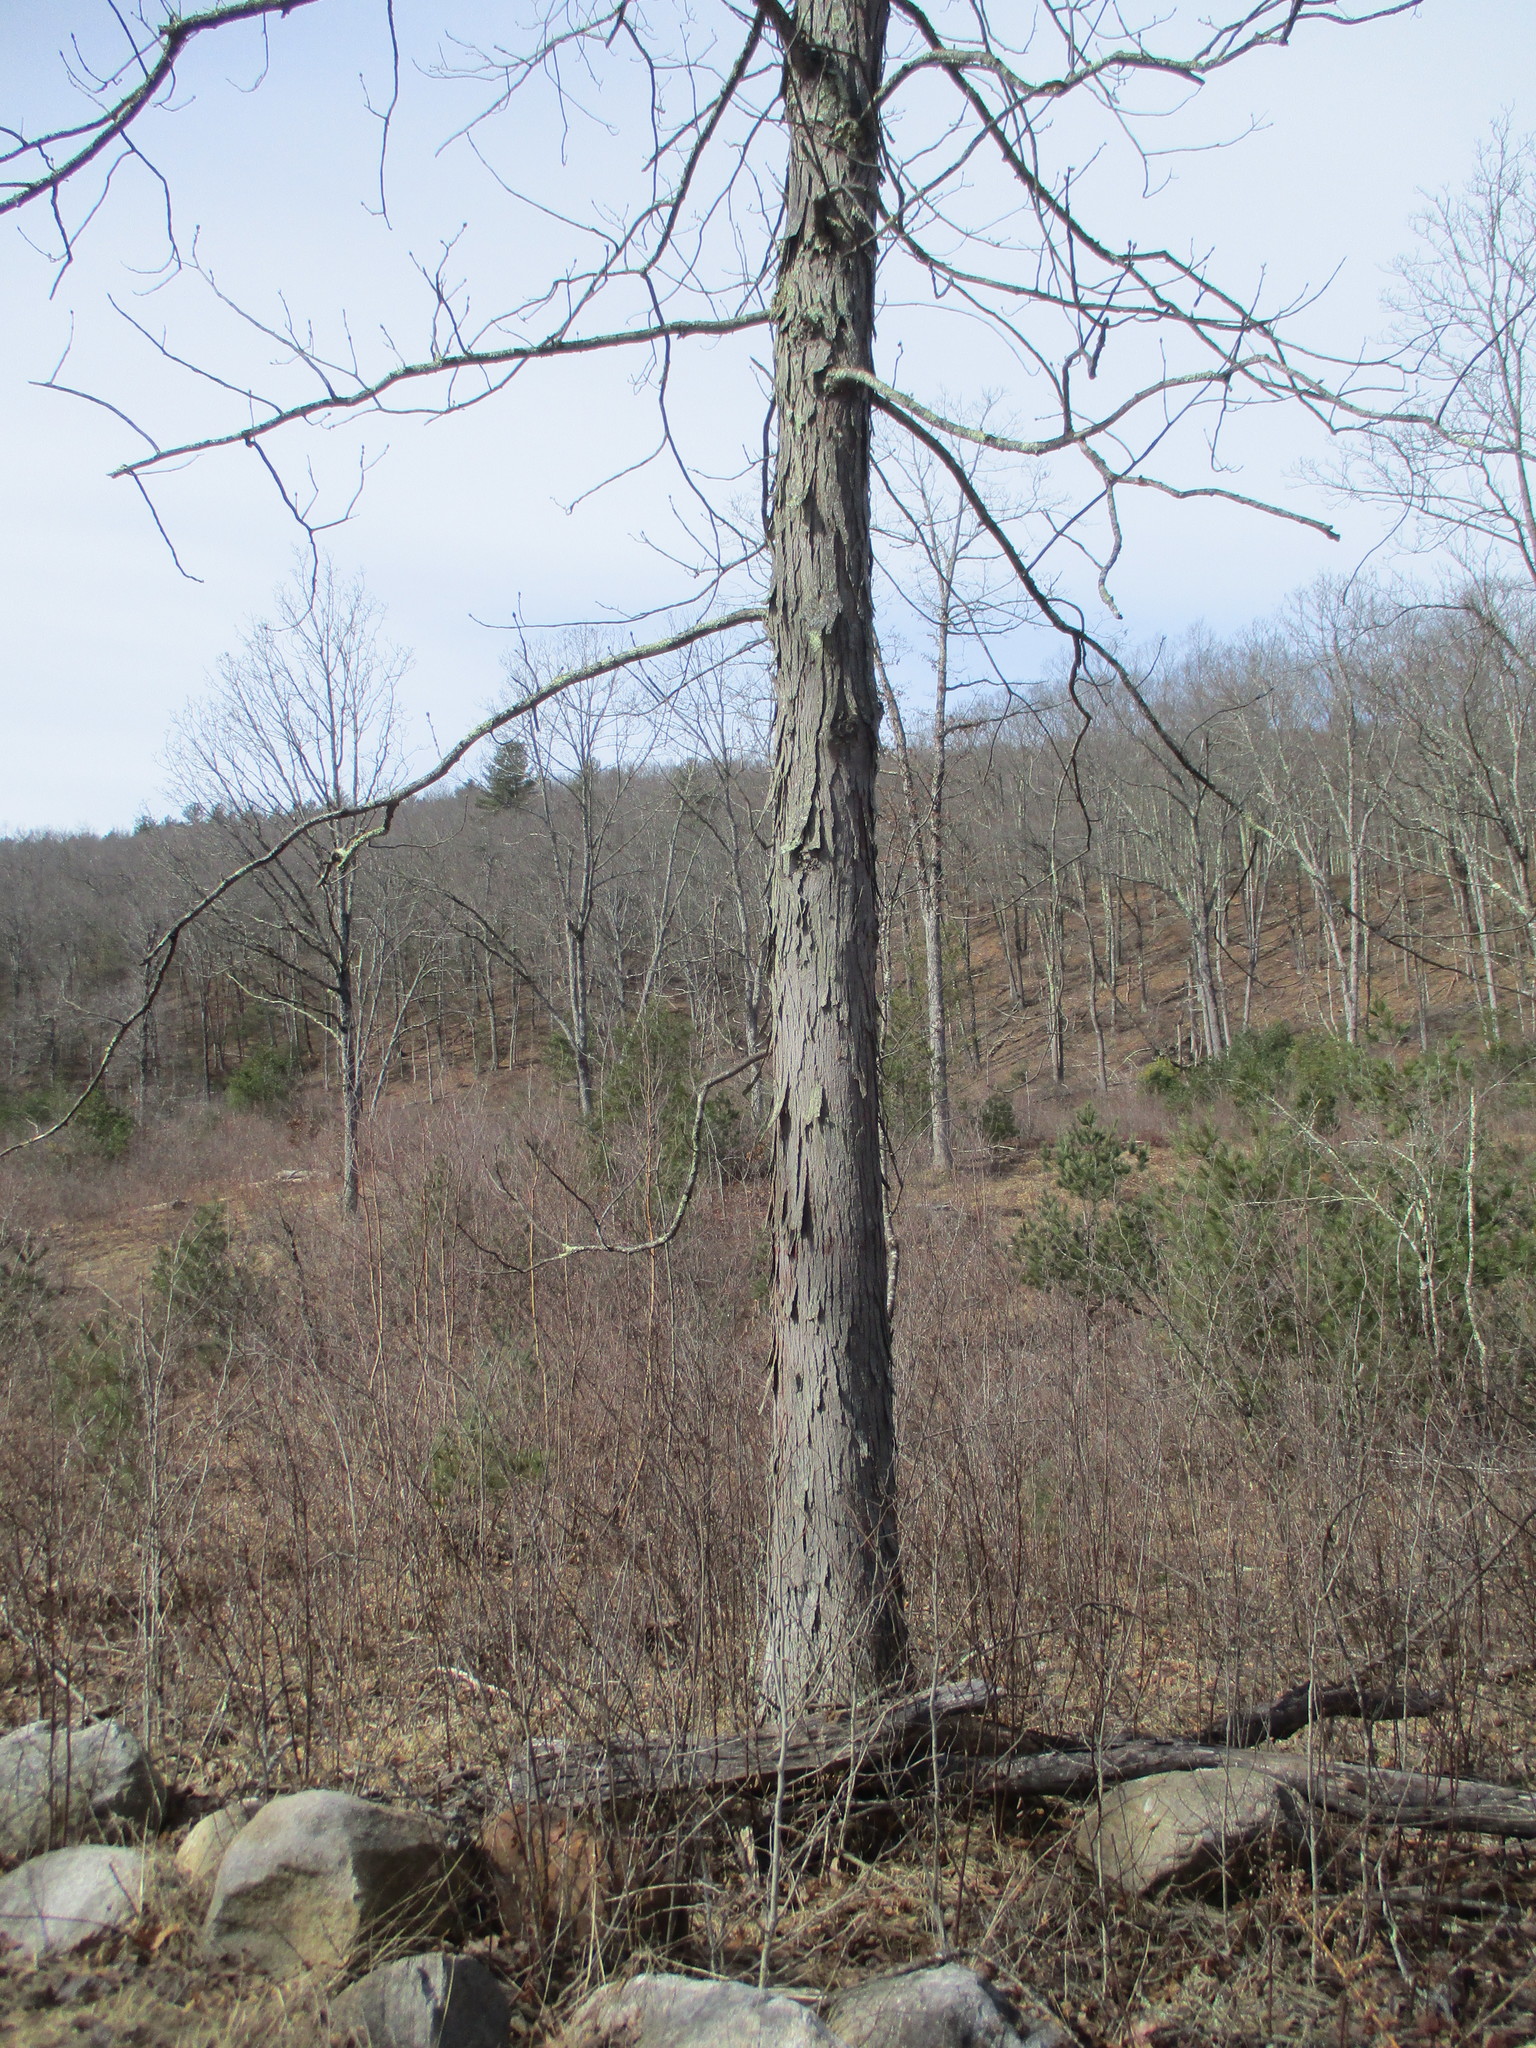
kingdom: Plantae
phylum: Tracheophyta
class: Magnoliopsida
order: Fagales
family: Juglandaceae
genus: Carya
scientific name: Carya ovata
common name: Shagbark hickory
